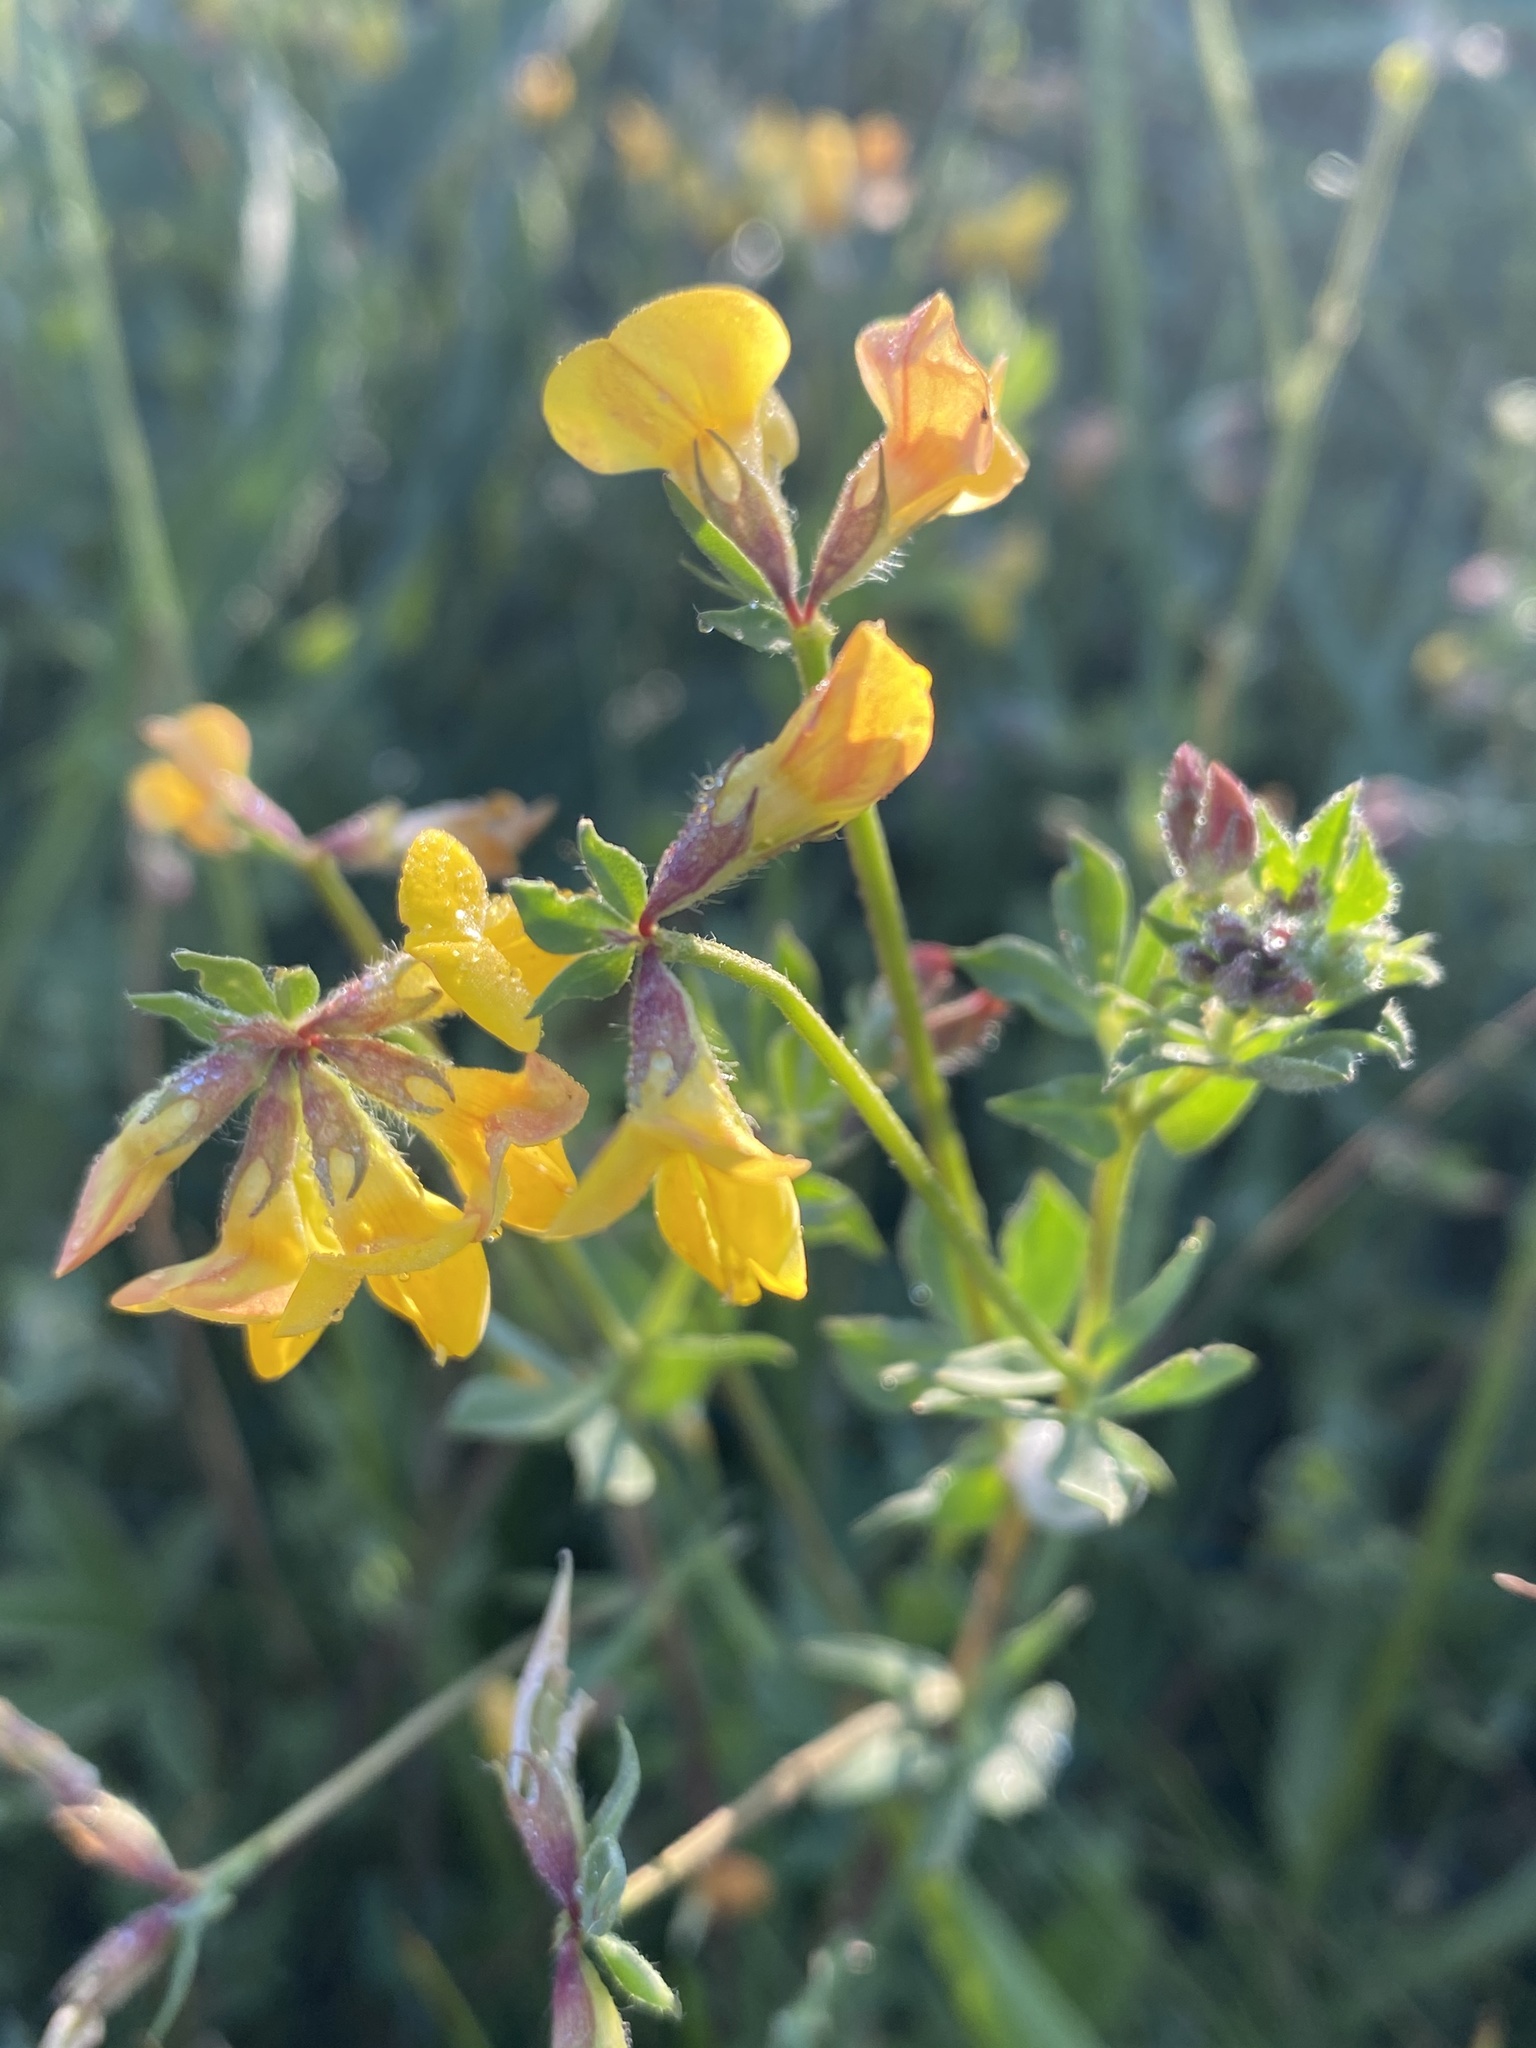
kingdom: Plantae
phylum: Tracheophyta
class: Magnoliopsida
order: Fabales
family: Fabaceae
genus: Lotus
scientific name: Lotus corniculatus
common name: Common bird's-foot-trefoil
